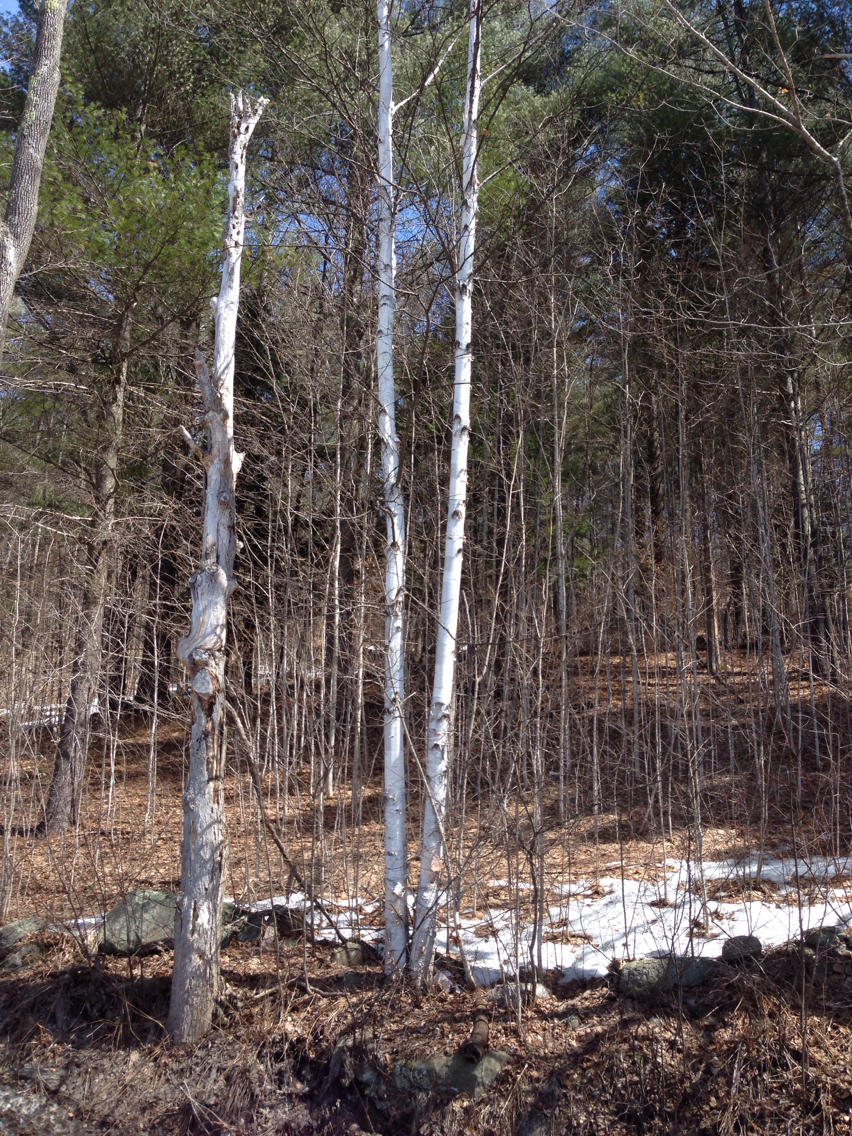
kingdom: Plantae
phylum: Tracheophyta
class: Magnoliopsida
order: Fagales
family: Betulaceae
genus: Betula
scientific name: Betula papyrifera
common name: Paper birch
